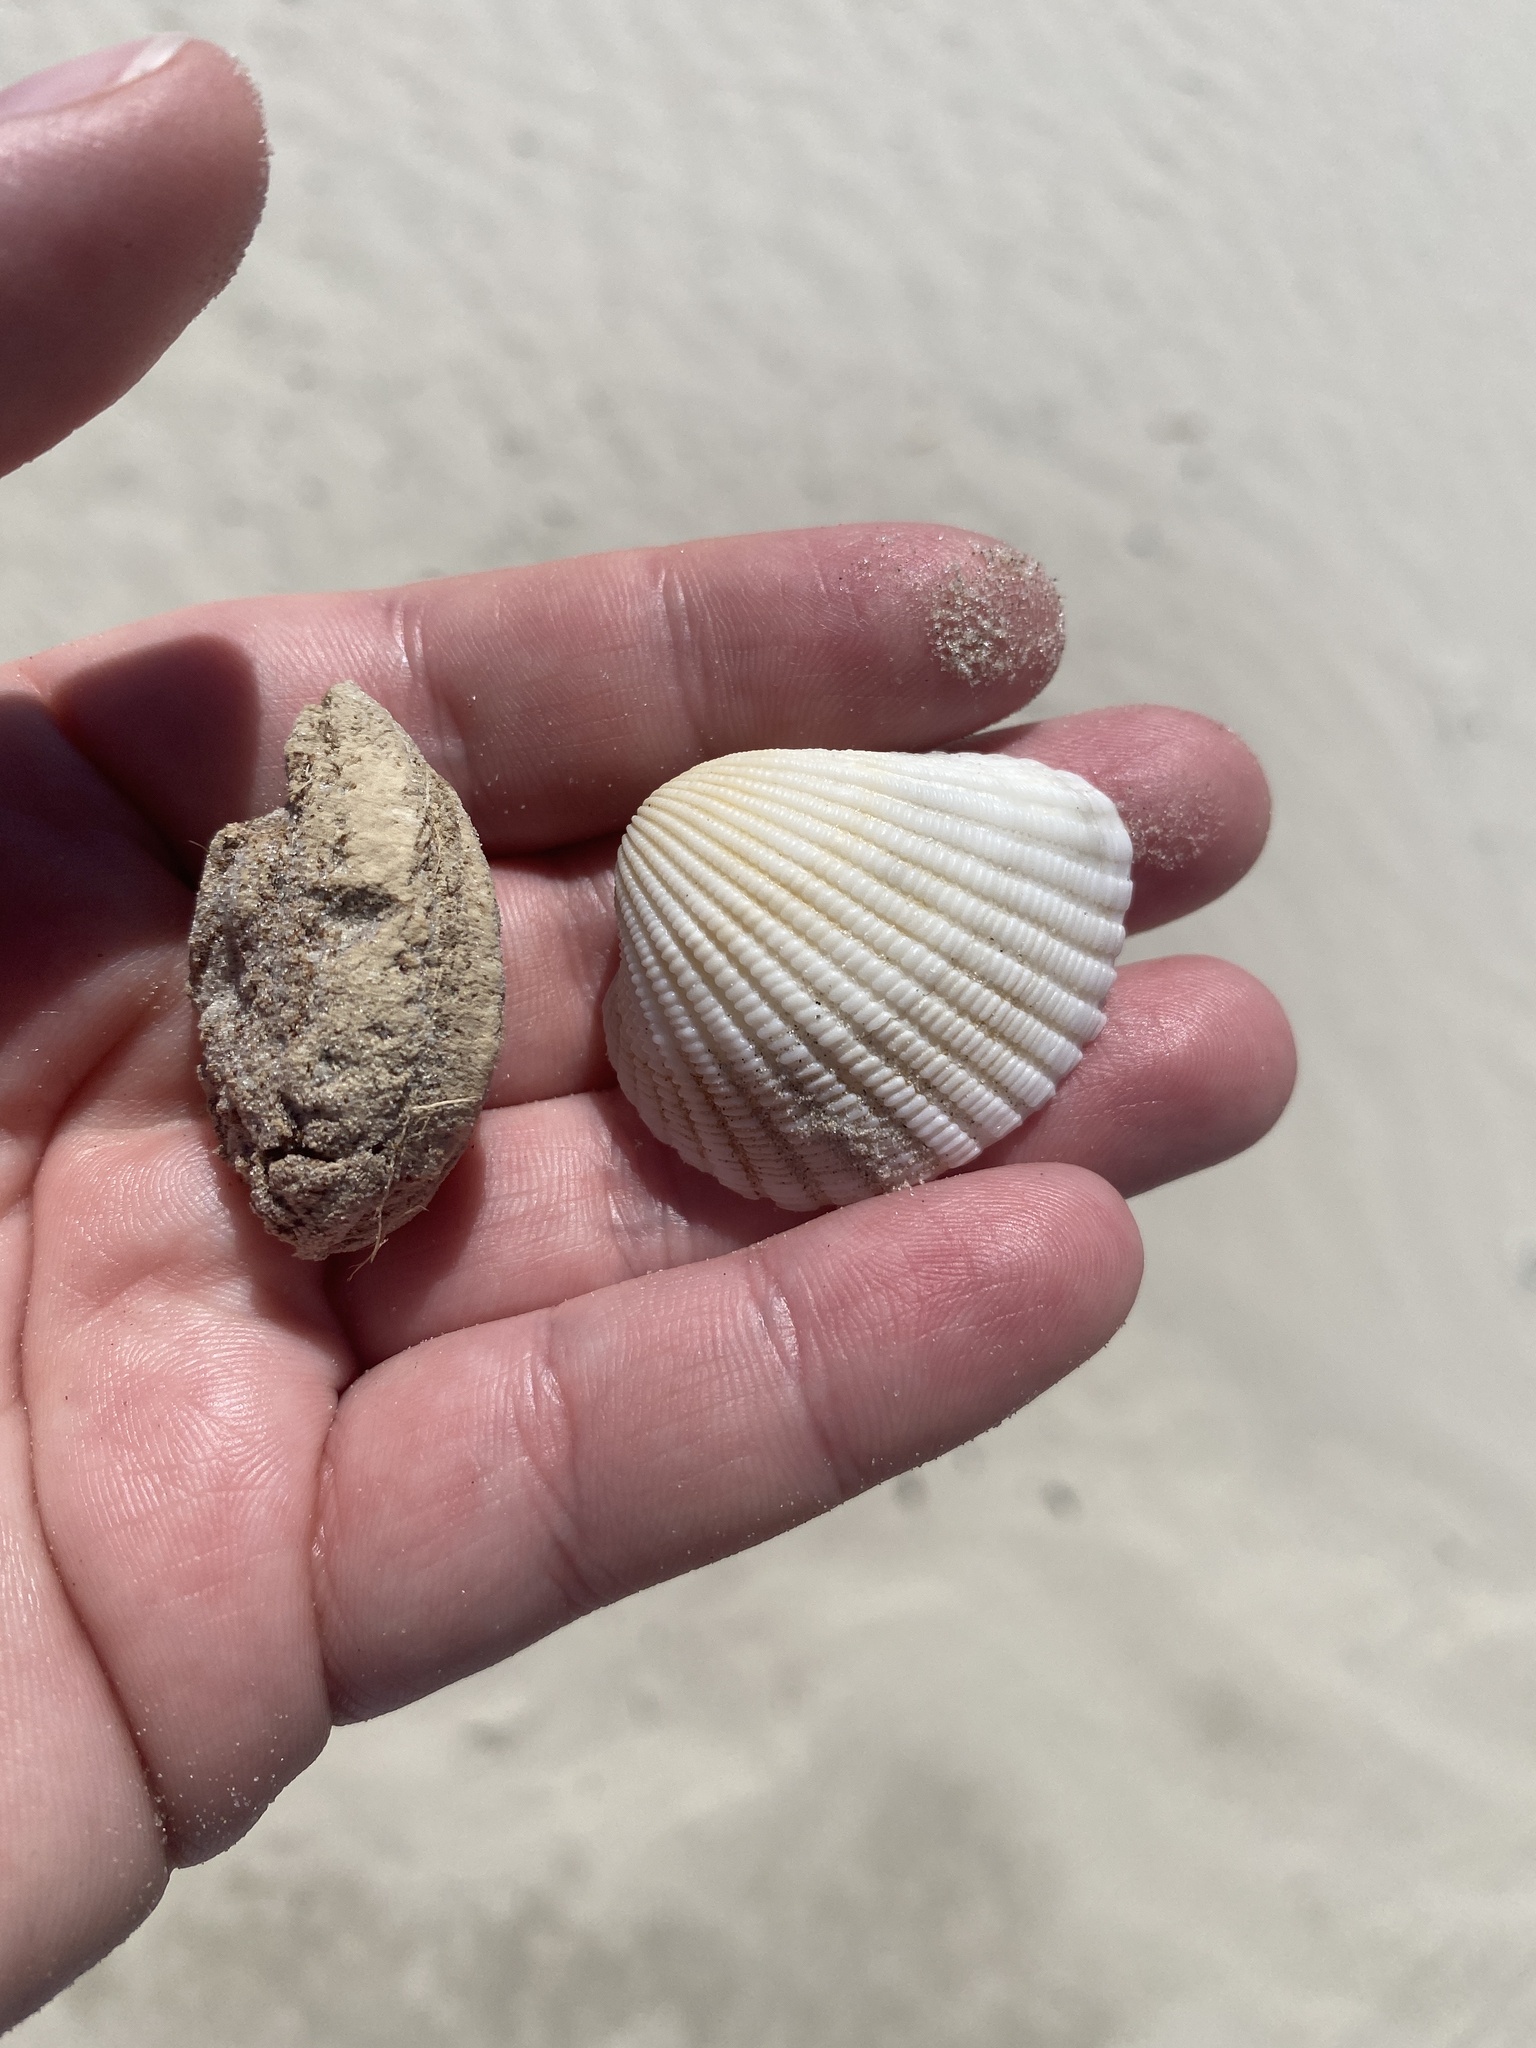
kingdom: Plantae
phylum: Tracheophyta
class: Magnoliopsida
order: Myrtales
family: Combretaceae
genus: Terminalia
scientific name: Terminalia catappa
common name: Tropical almond
